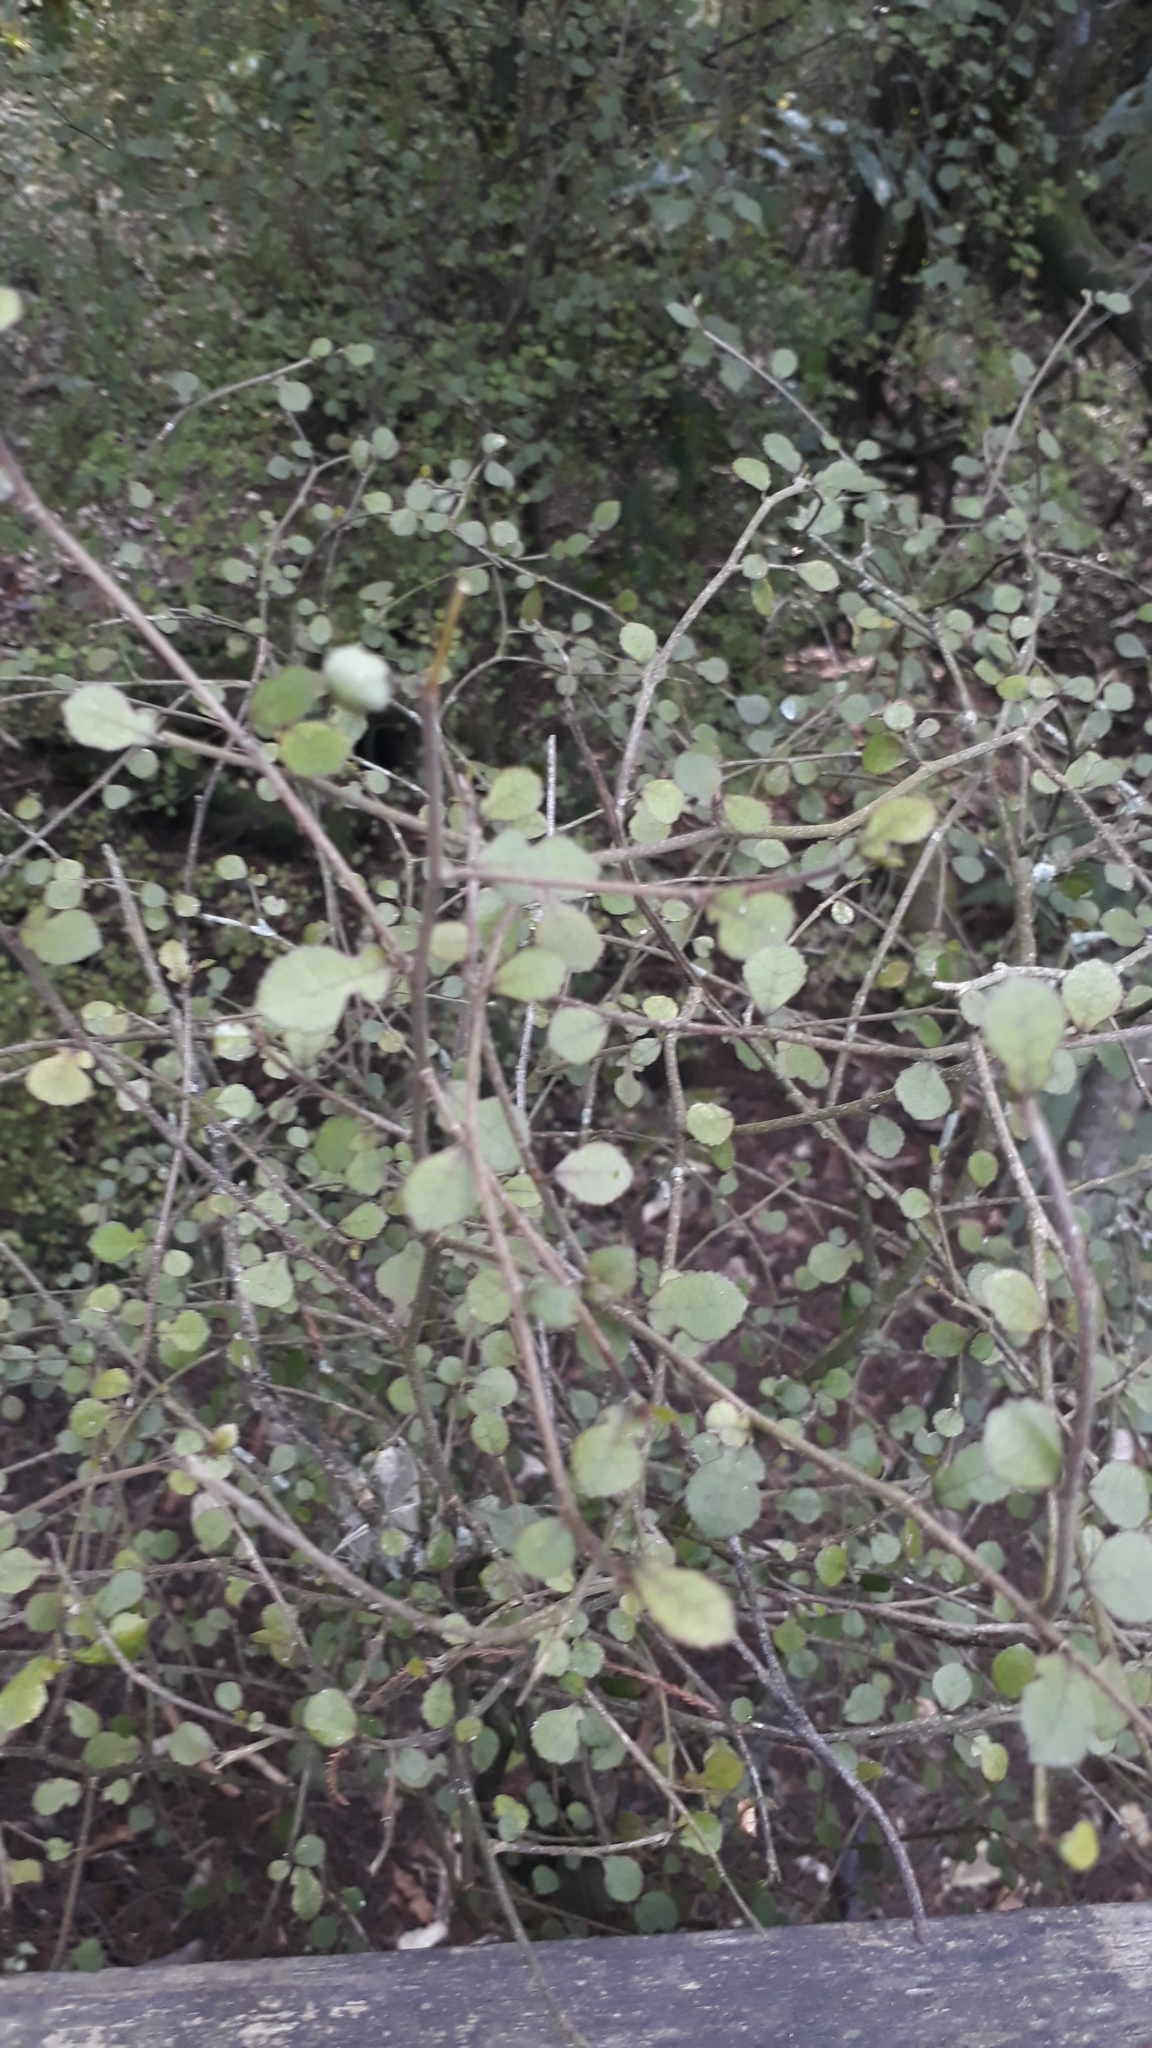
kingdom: Plantae
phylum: Tracheophyta
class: Magnoliopsida
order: Rosales
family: Moraceae
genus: Paratrophis
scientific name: Paratrophis microphylla
